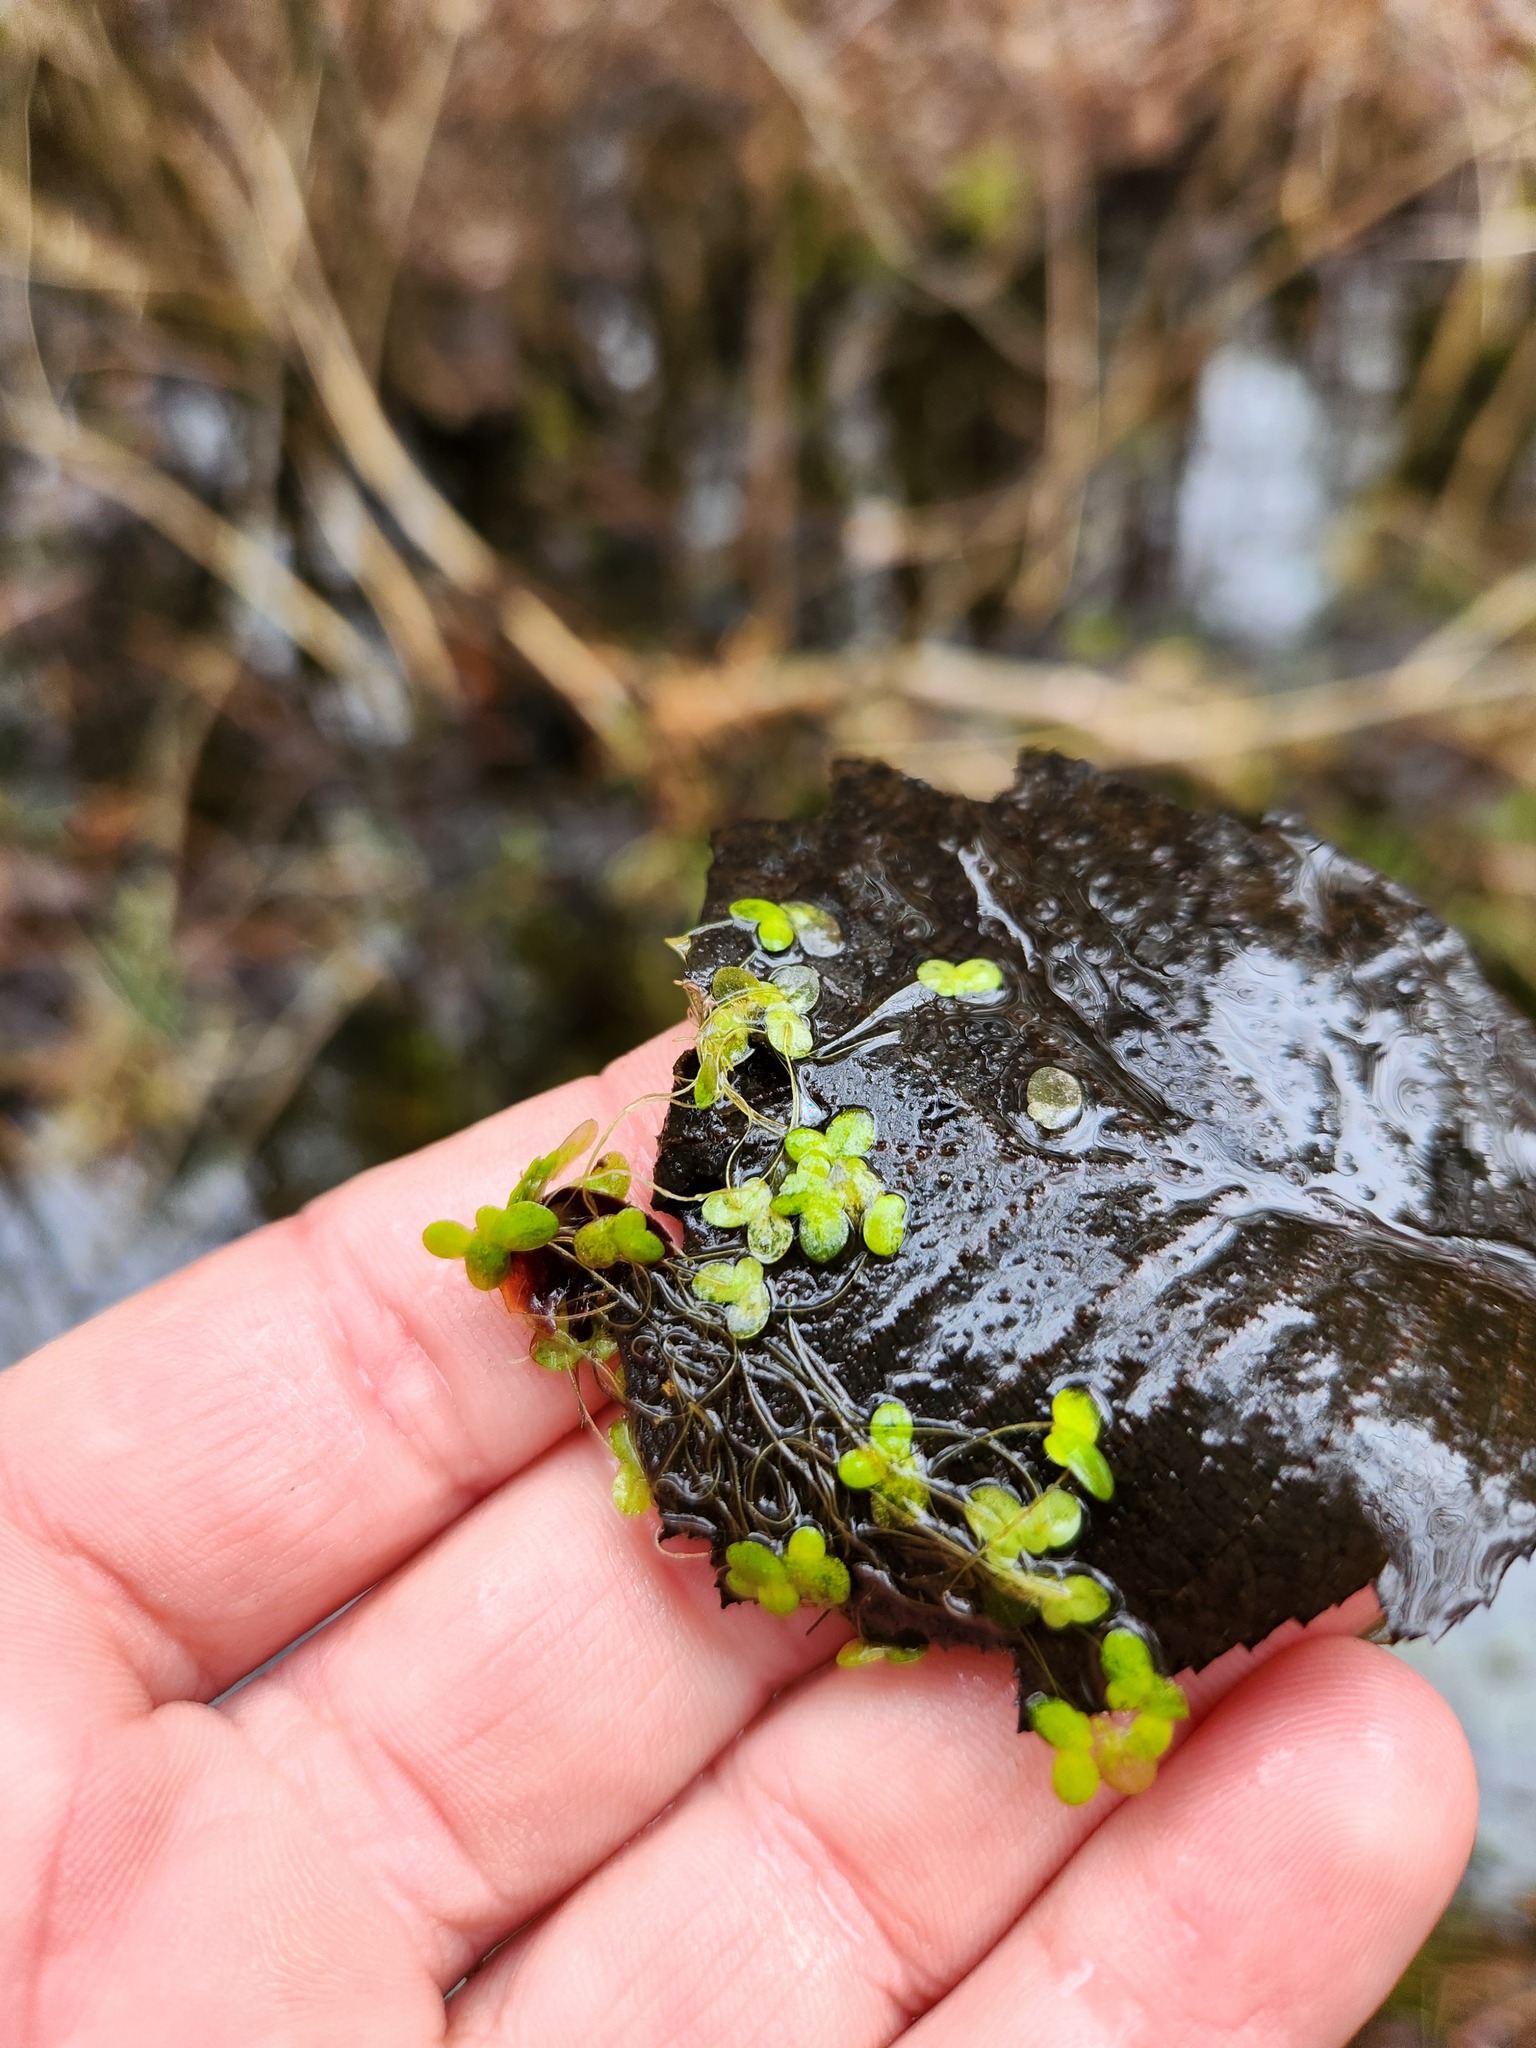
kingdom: Plantae
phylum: Tracheophyta
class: Liliopsida
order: Alismatales
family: Araceae
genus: Lemna
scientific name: Lemna minor
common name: Common duckweed
